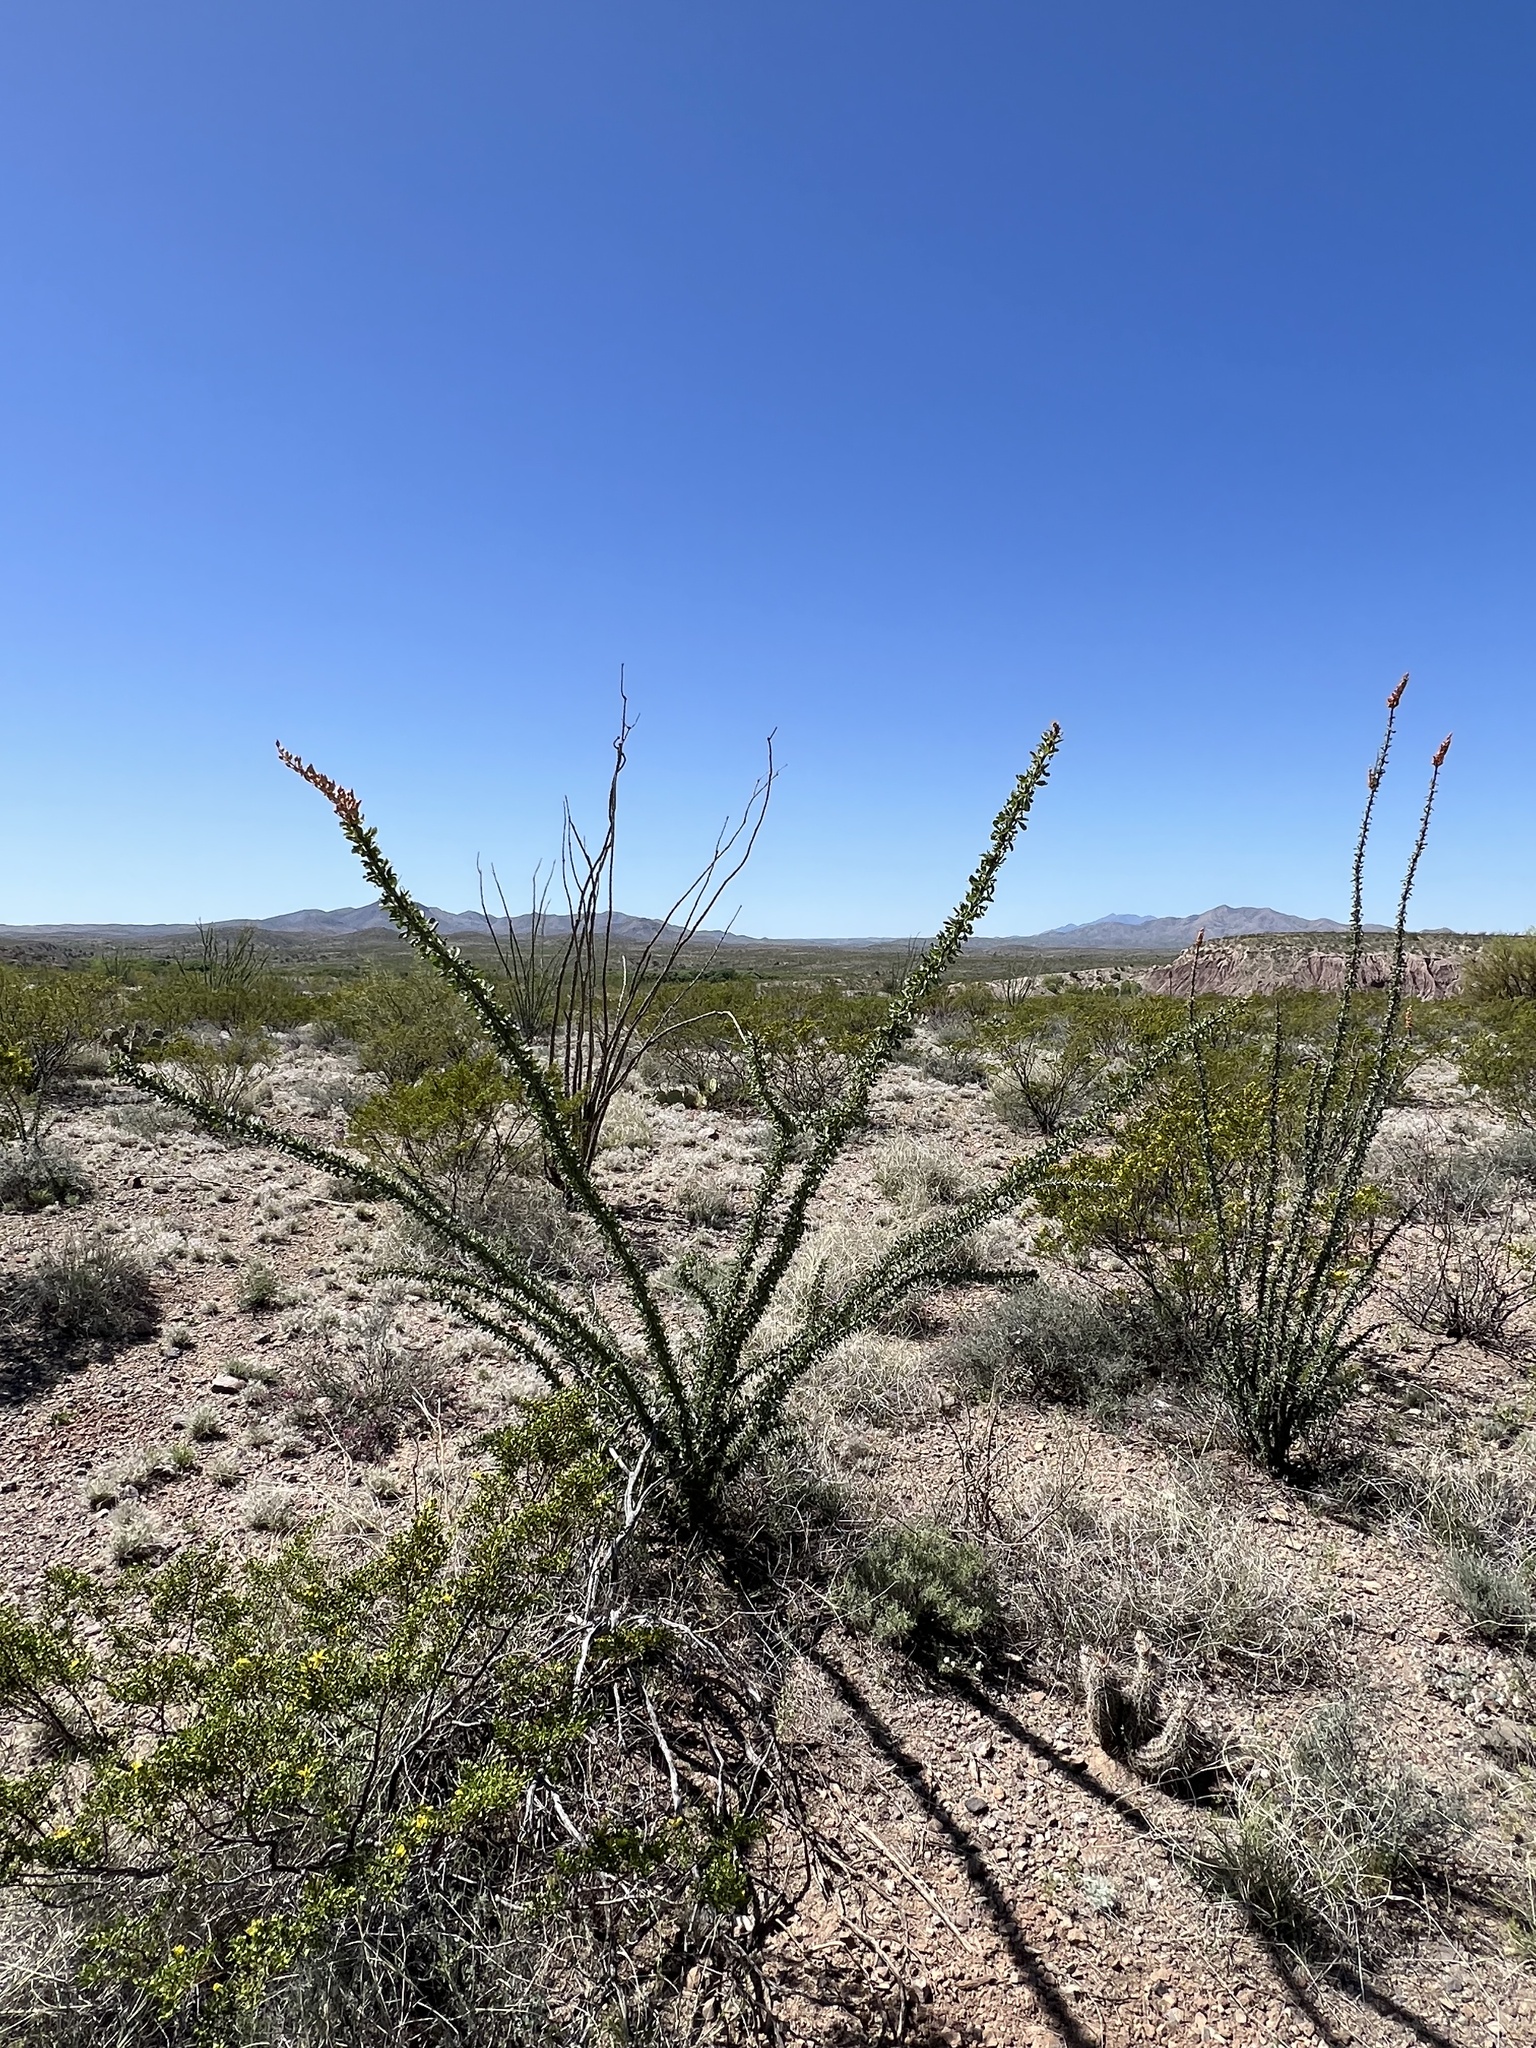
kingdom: Plantae
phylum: Tracheophyta
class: Magnoliopsida
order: Ericales
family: Fouquieriaceae
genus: Fouquieria
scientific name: Fouquieria splendens
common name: Vine-cactus
